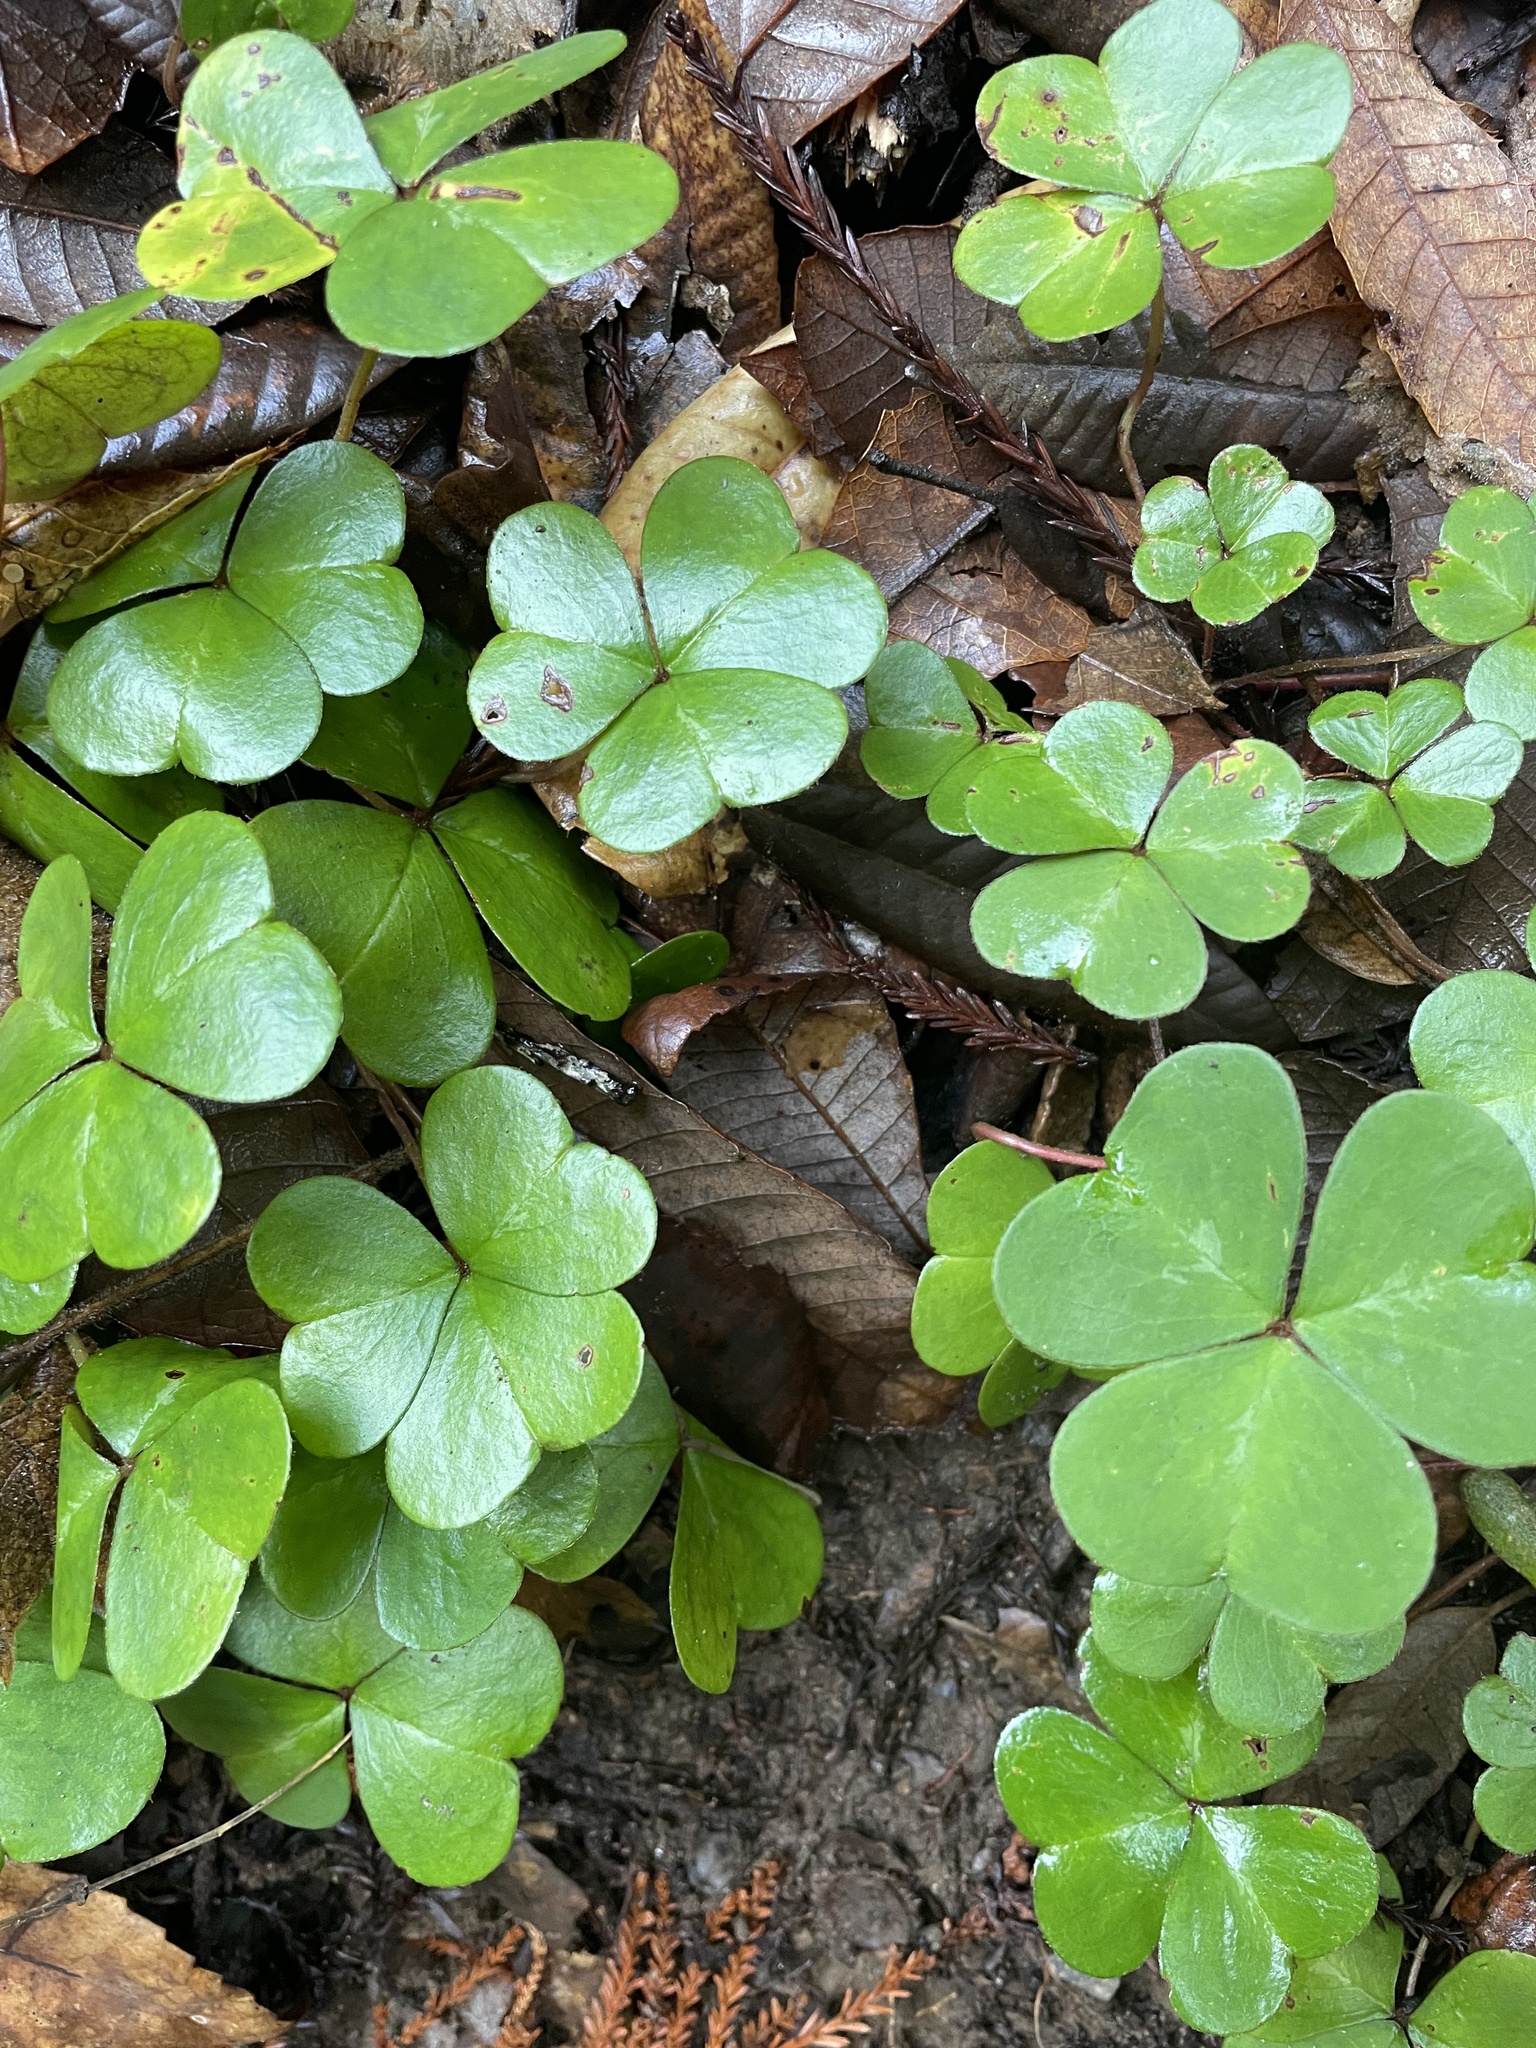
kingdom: Plantae
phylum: Tracheophyta
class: Magnoliopsida
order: Oxalidales
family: Oxalidaceae
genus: Oxalis
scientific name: Oxalis oregana
